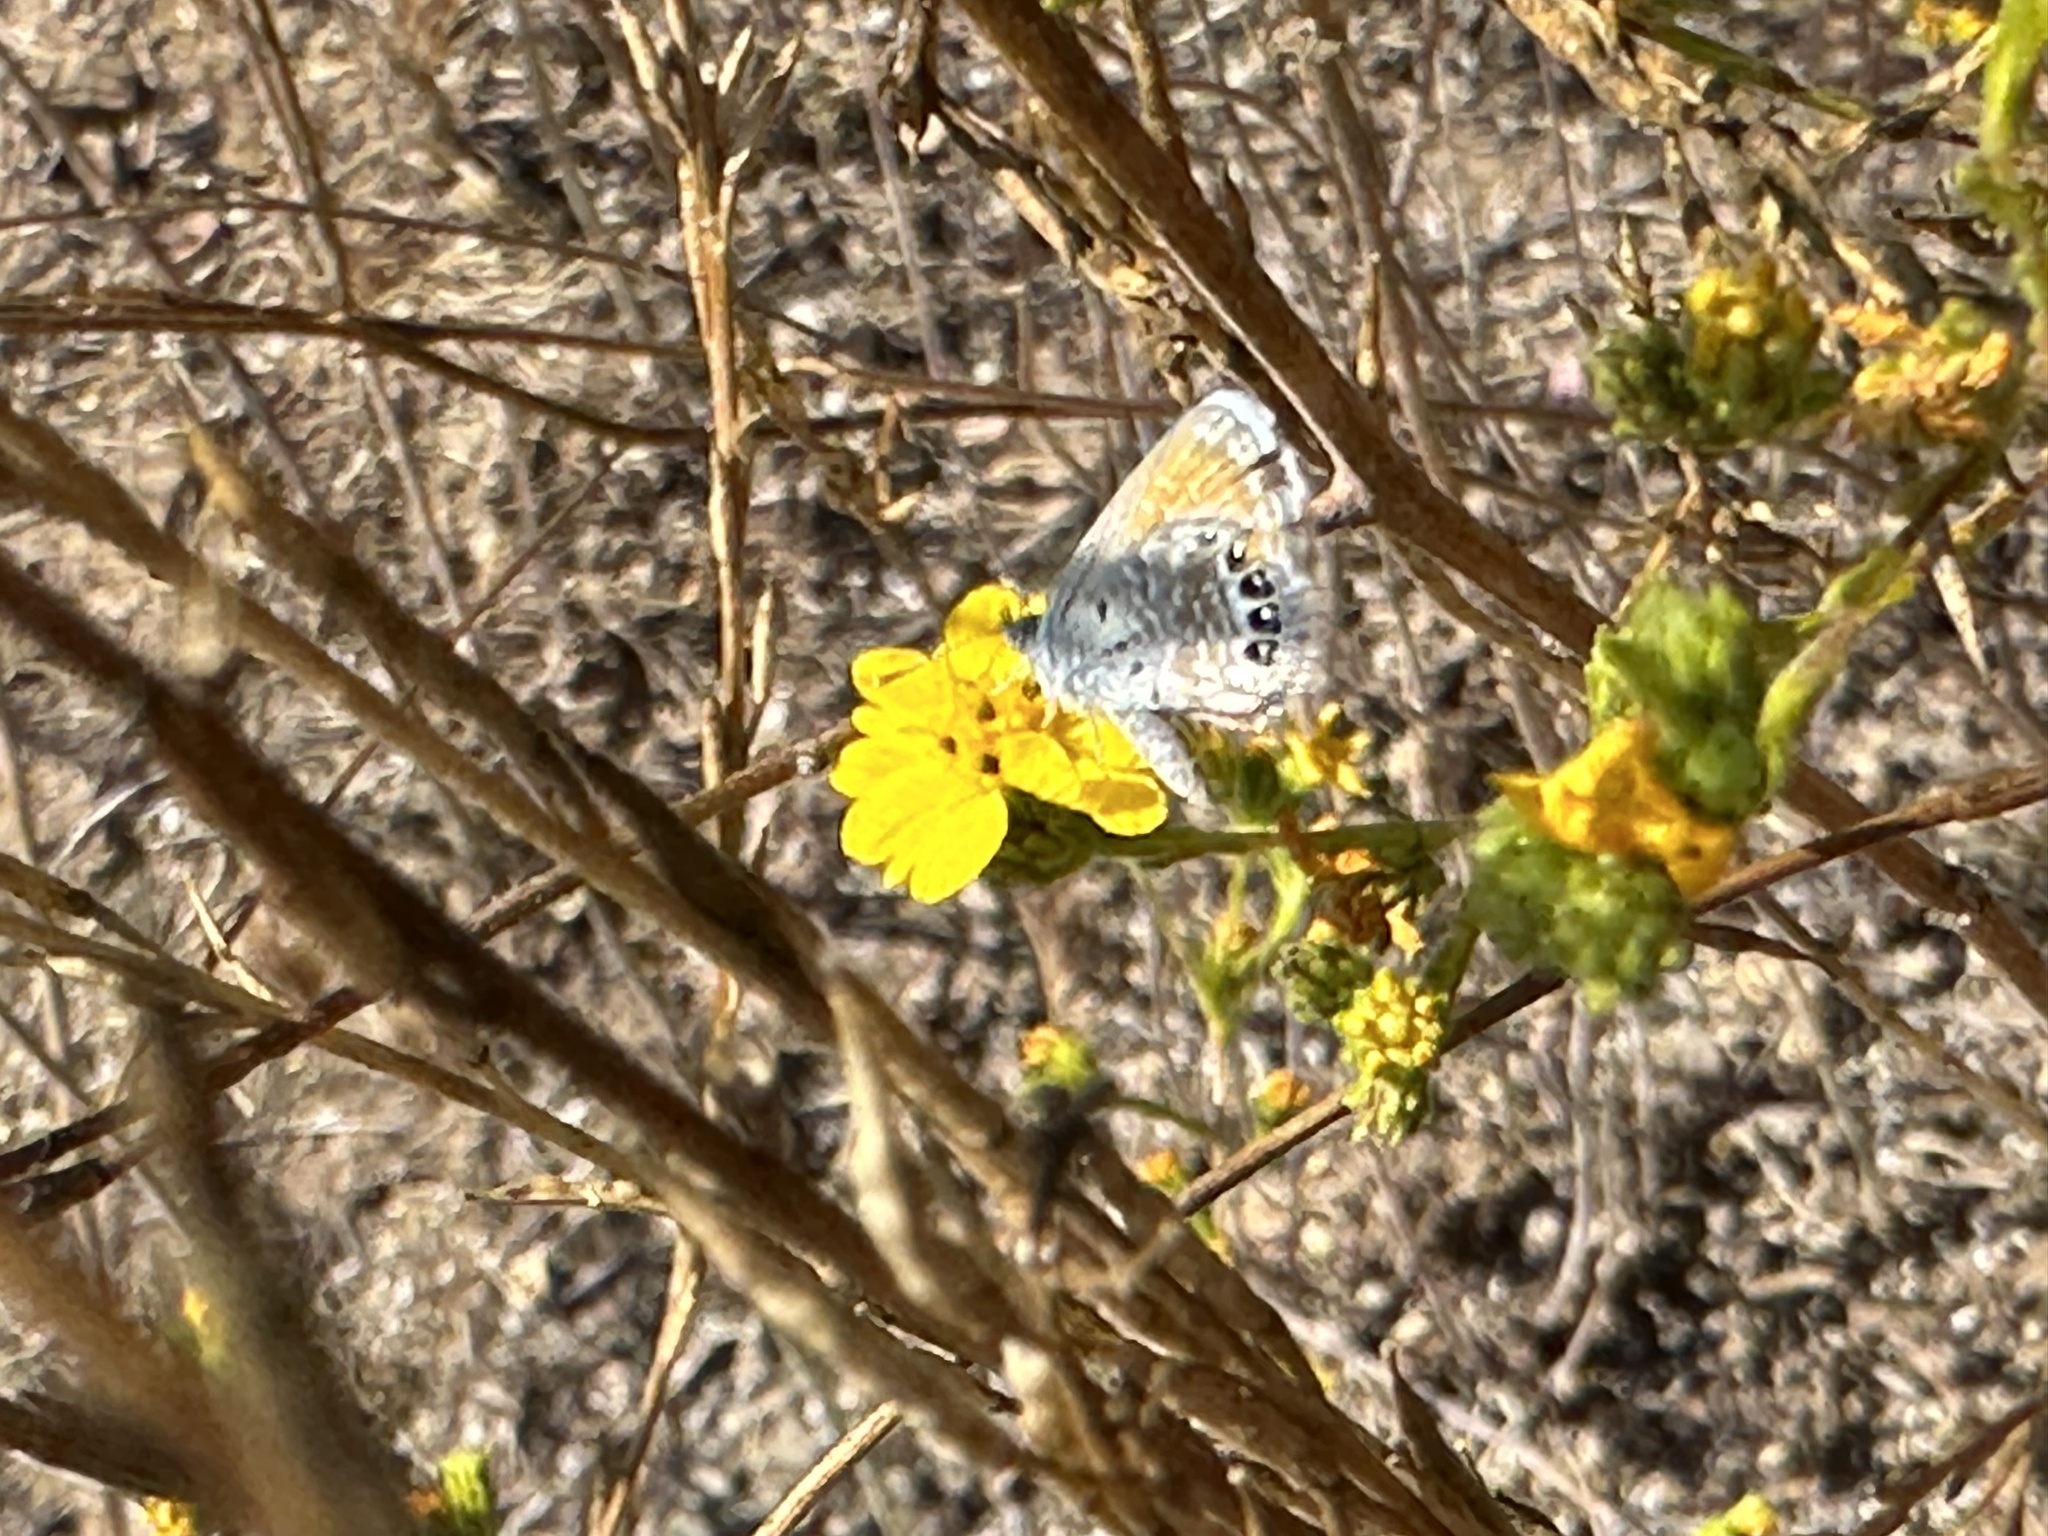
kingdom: Animalia
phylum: Arthropoda
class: Insecta
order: Lepidoptera
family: Lycaenidae
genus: Brephidium
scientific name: Brephidium exilis
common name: Pygmy blue
